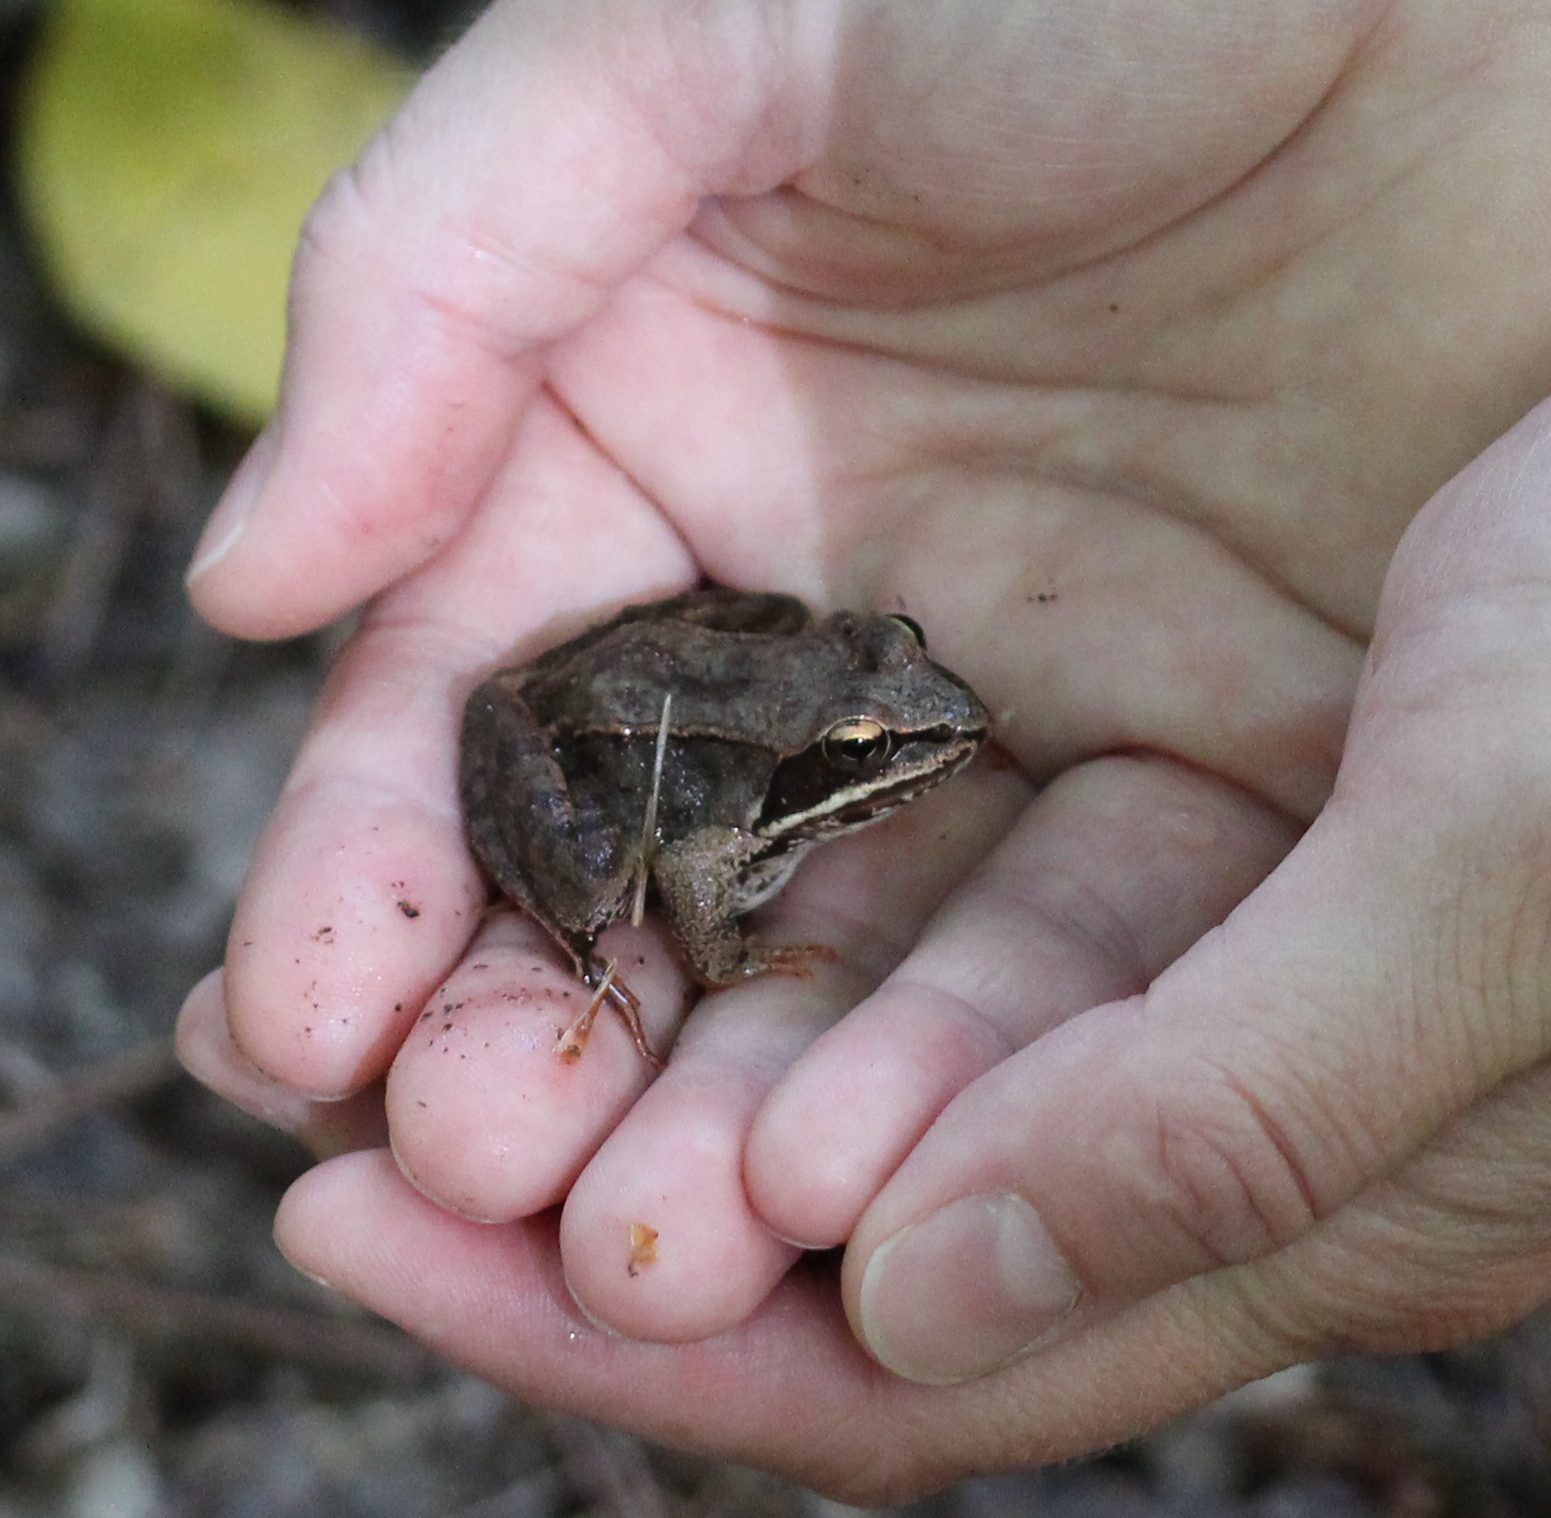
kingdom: Animalia
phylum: Chordata
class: Amphibia
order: Anura
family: Ranidae
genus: Lithobates
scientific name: Lithobates sylvaticus
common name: Wood frog
